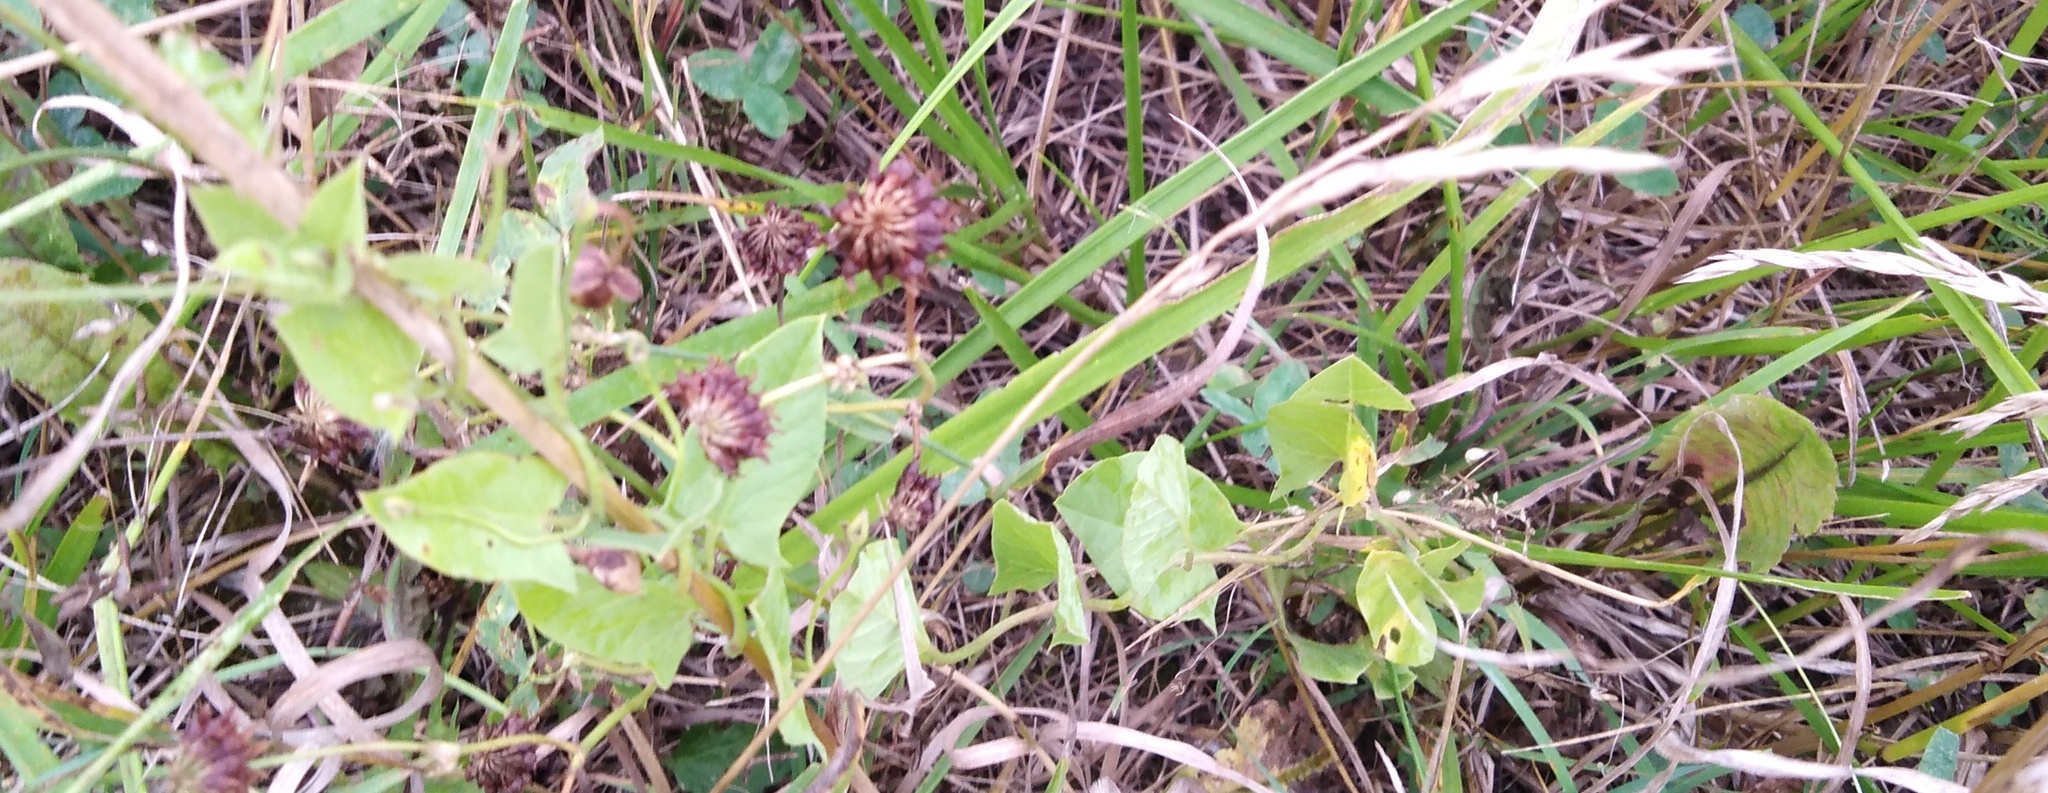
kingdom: Plantae
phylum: Tracheophyta
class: Magnoliopsida
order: Caryophyllales
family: Polygonaceae
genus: Fallopia
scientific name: Fallopia convolvulus
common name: Black bindweed
